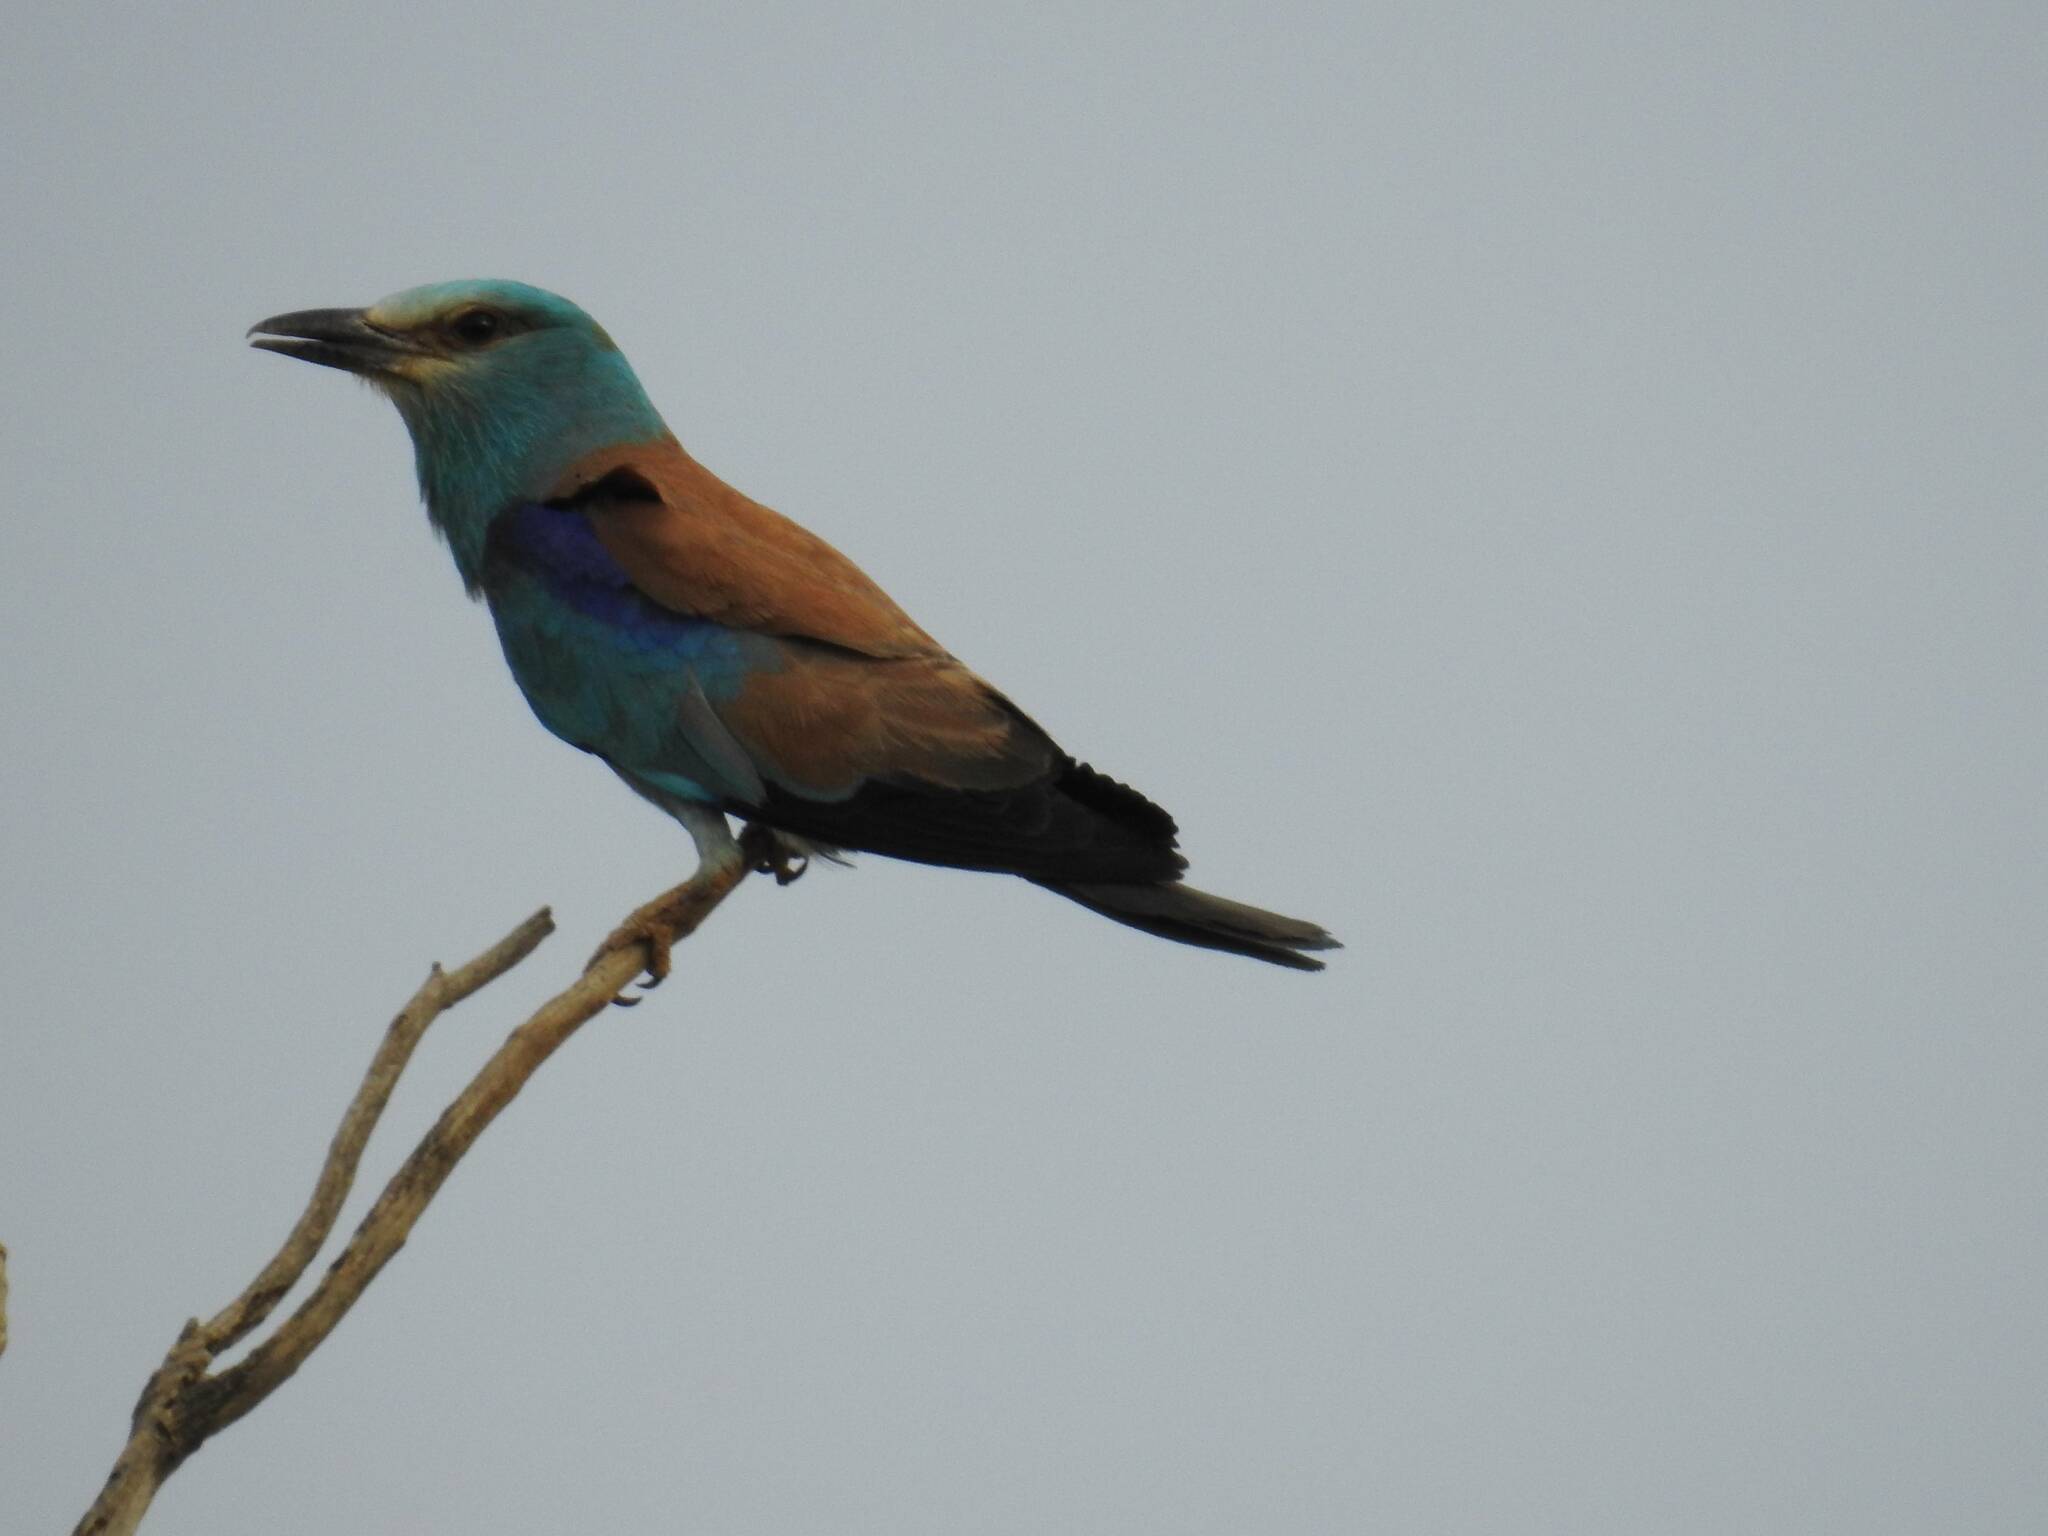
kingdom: Animalia
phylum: Chordata
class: Aves
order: Coraciiformes
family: Coraciidae
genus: Coracias
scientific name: Coracias garrulus
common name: European roller
